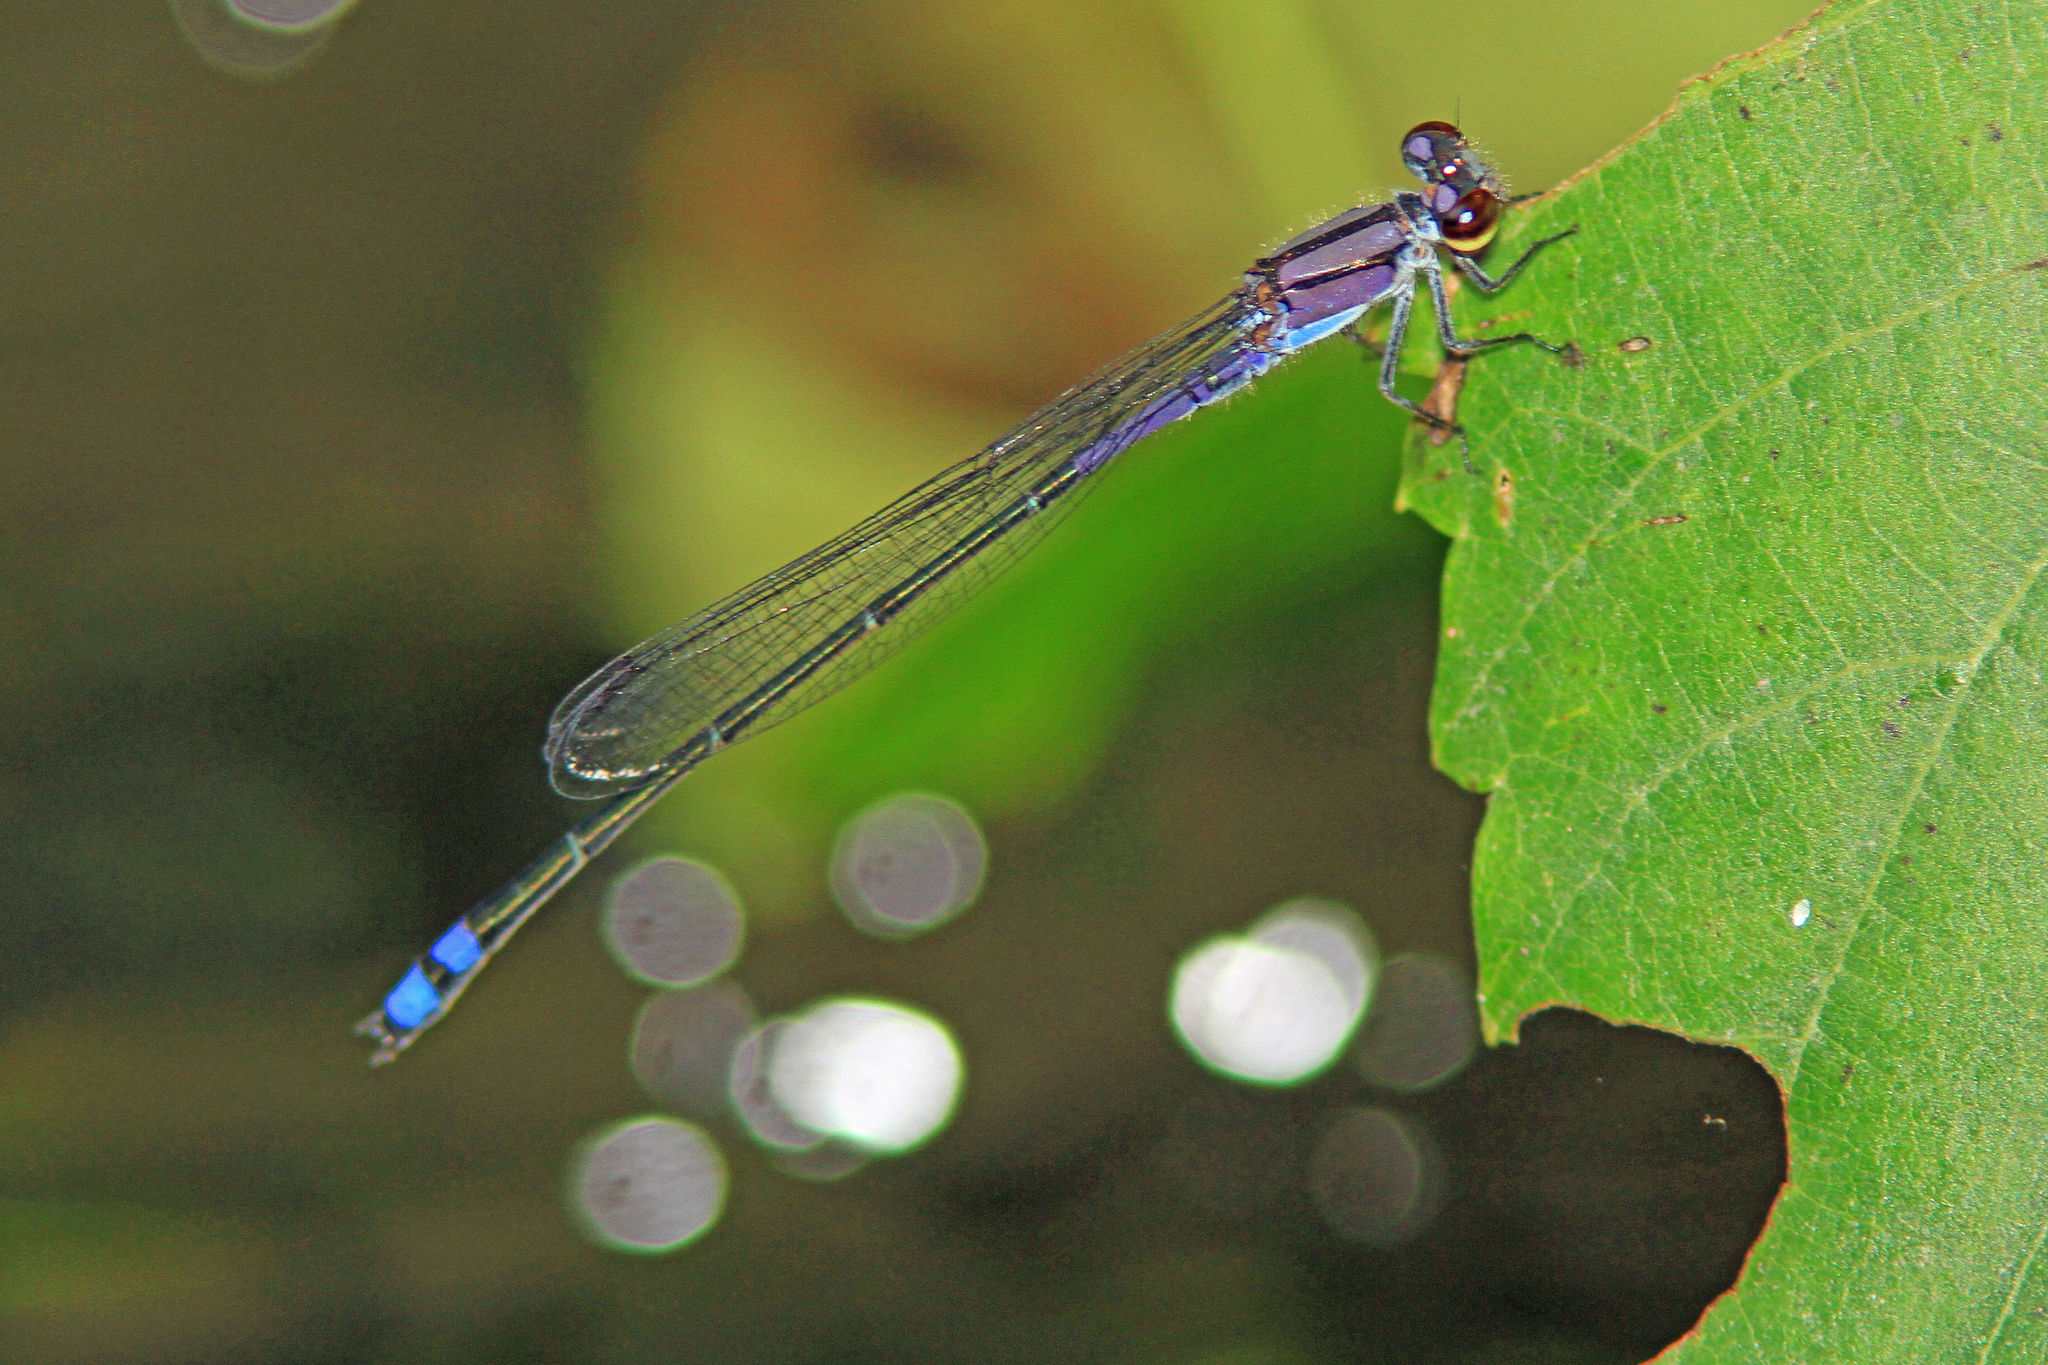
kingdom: Animalia
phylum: Arthropoda
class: Insecta
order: Odonata
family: Coenagrionidae
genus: Enallagma
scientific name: Enallagma novaehispaniae
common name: Neotropical bluet
